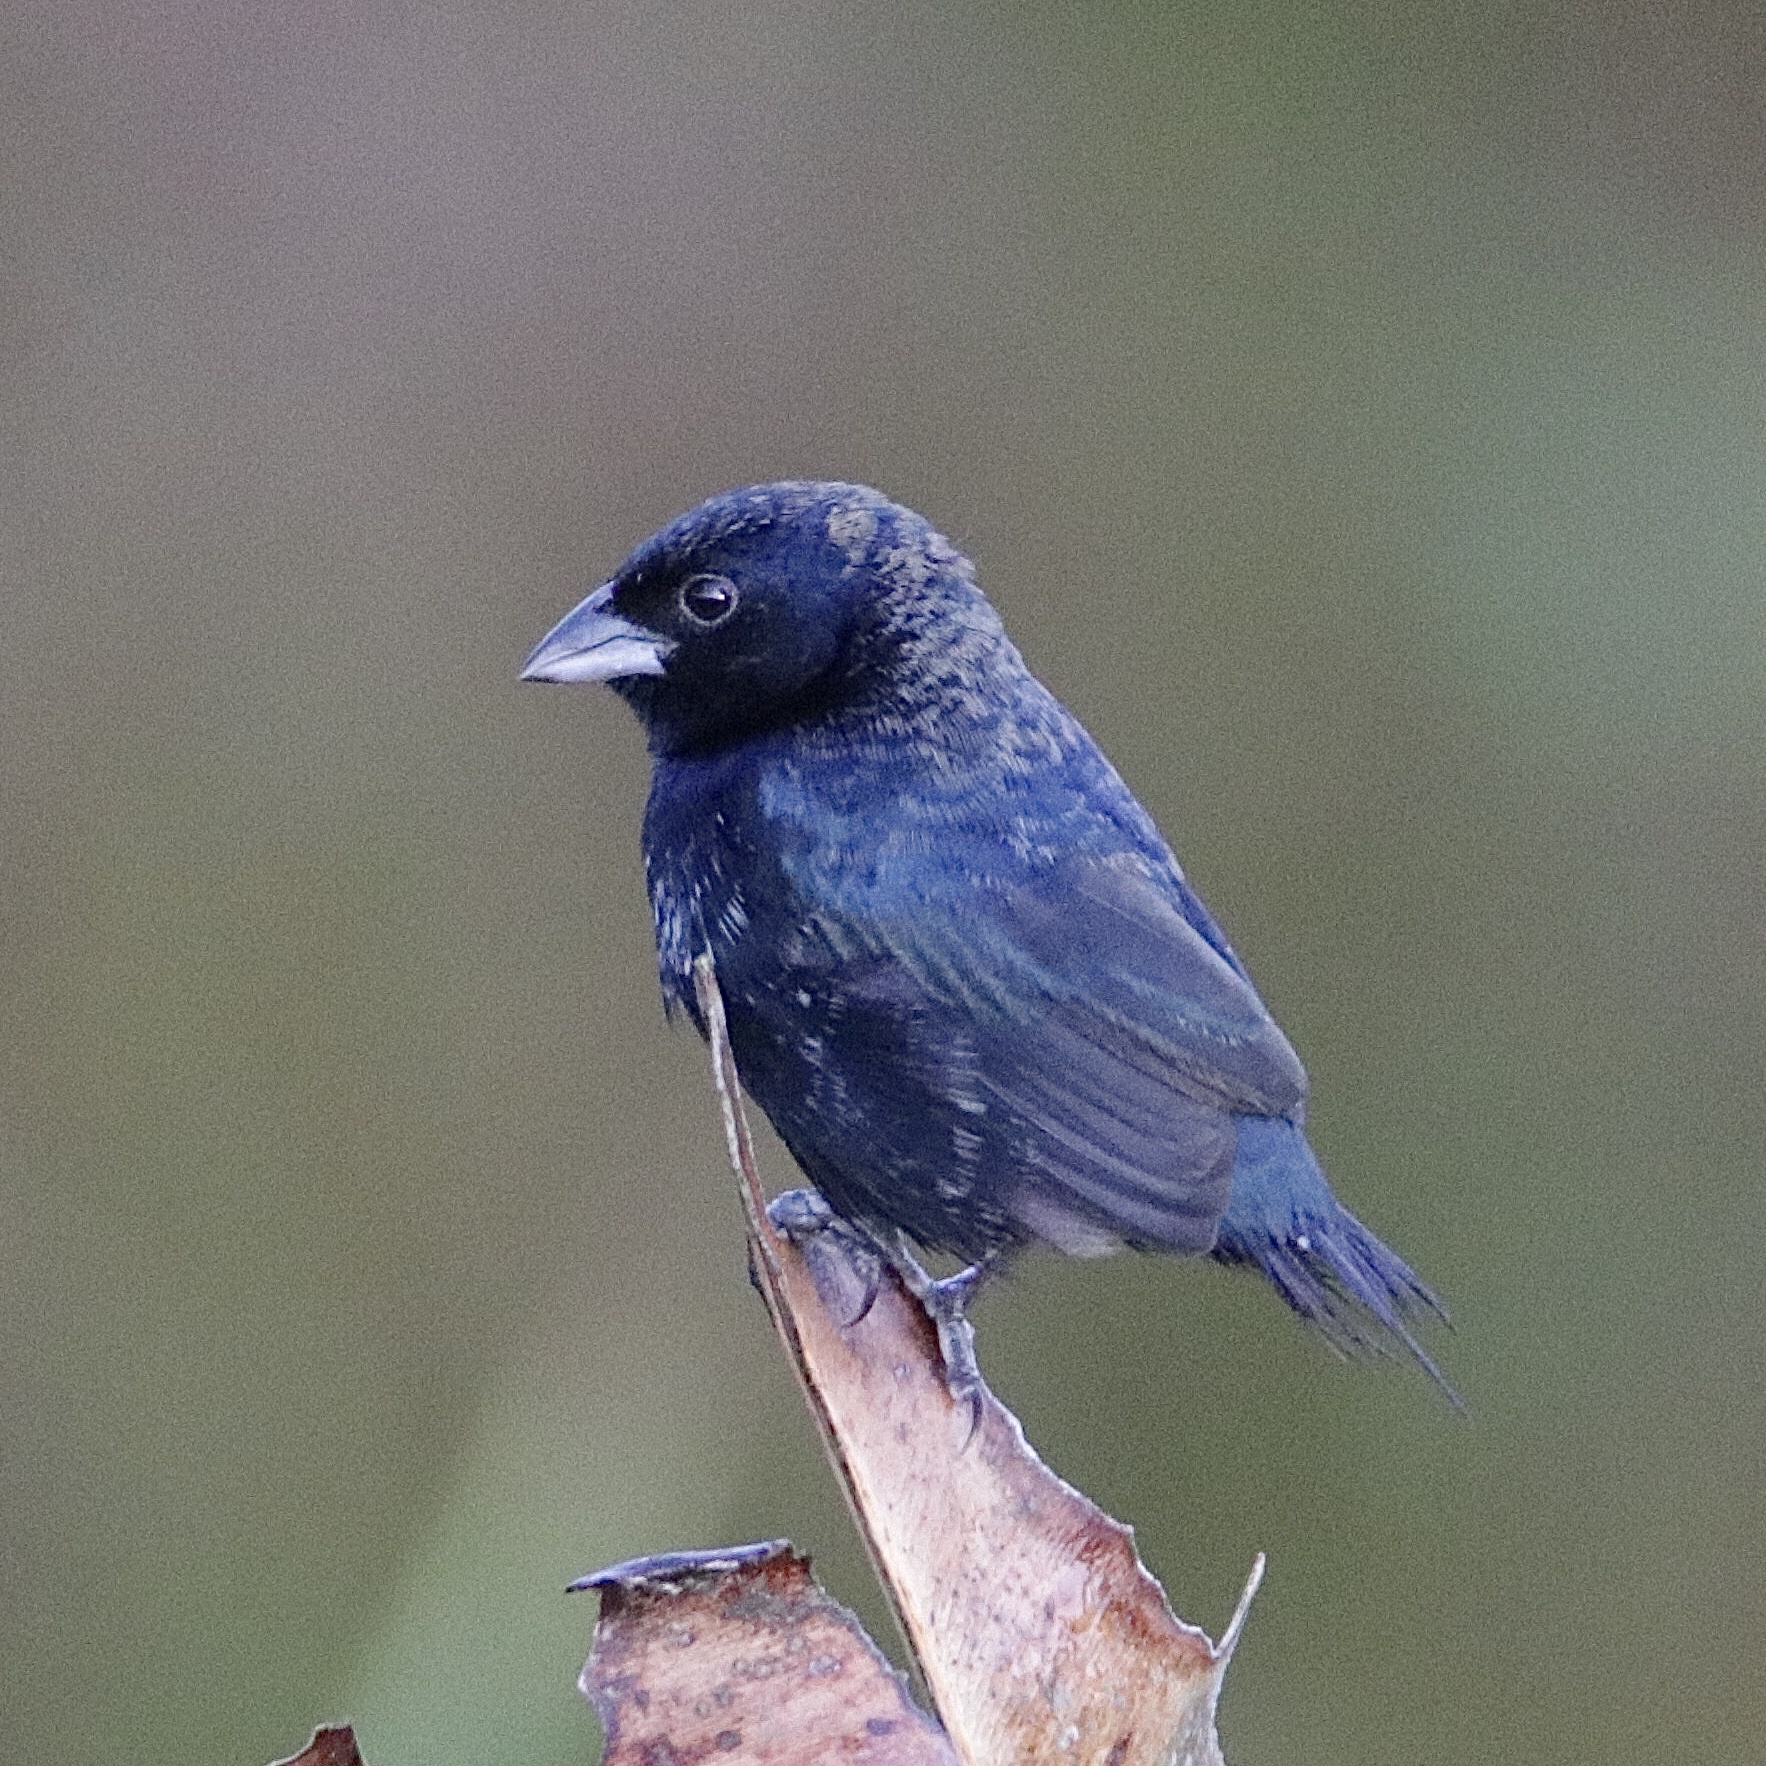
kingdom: Animalia
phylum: Chordata
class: Aves
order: Passeriformes
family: Thraupidae
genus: Volatinia
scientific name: Volatinia jacarina
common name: Blue-black grassquit
